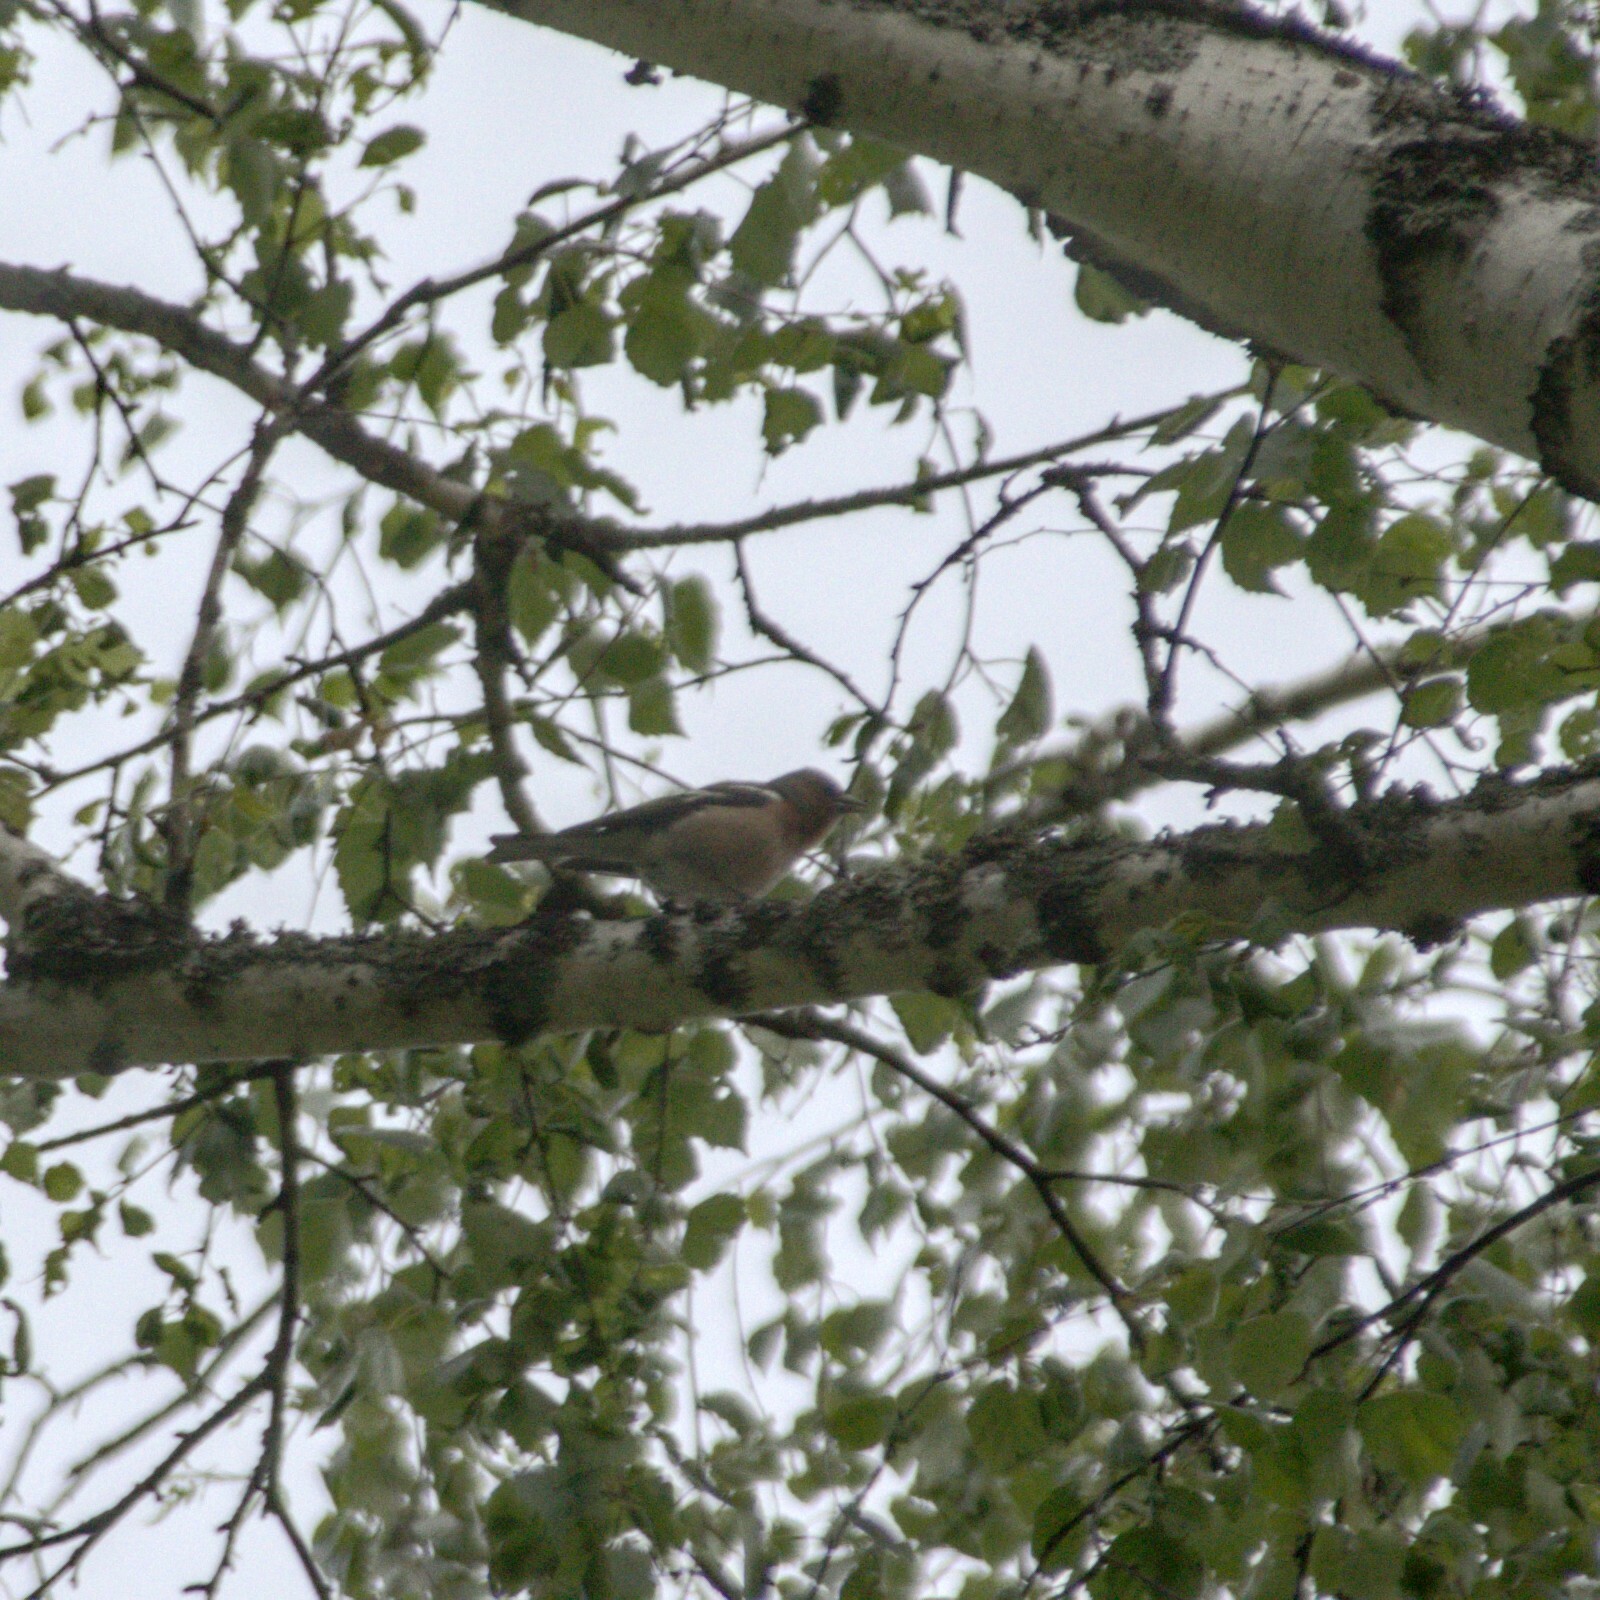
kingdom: Animalia
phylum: Chordata
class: Aves
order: Passeriformes
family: Fringillidae
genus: Fringilla
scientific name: Fringilla coelebs
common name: Common chaffinch
